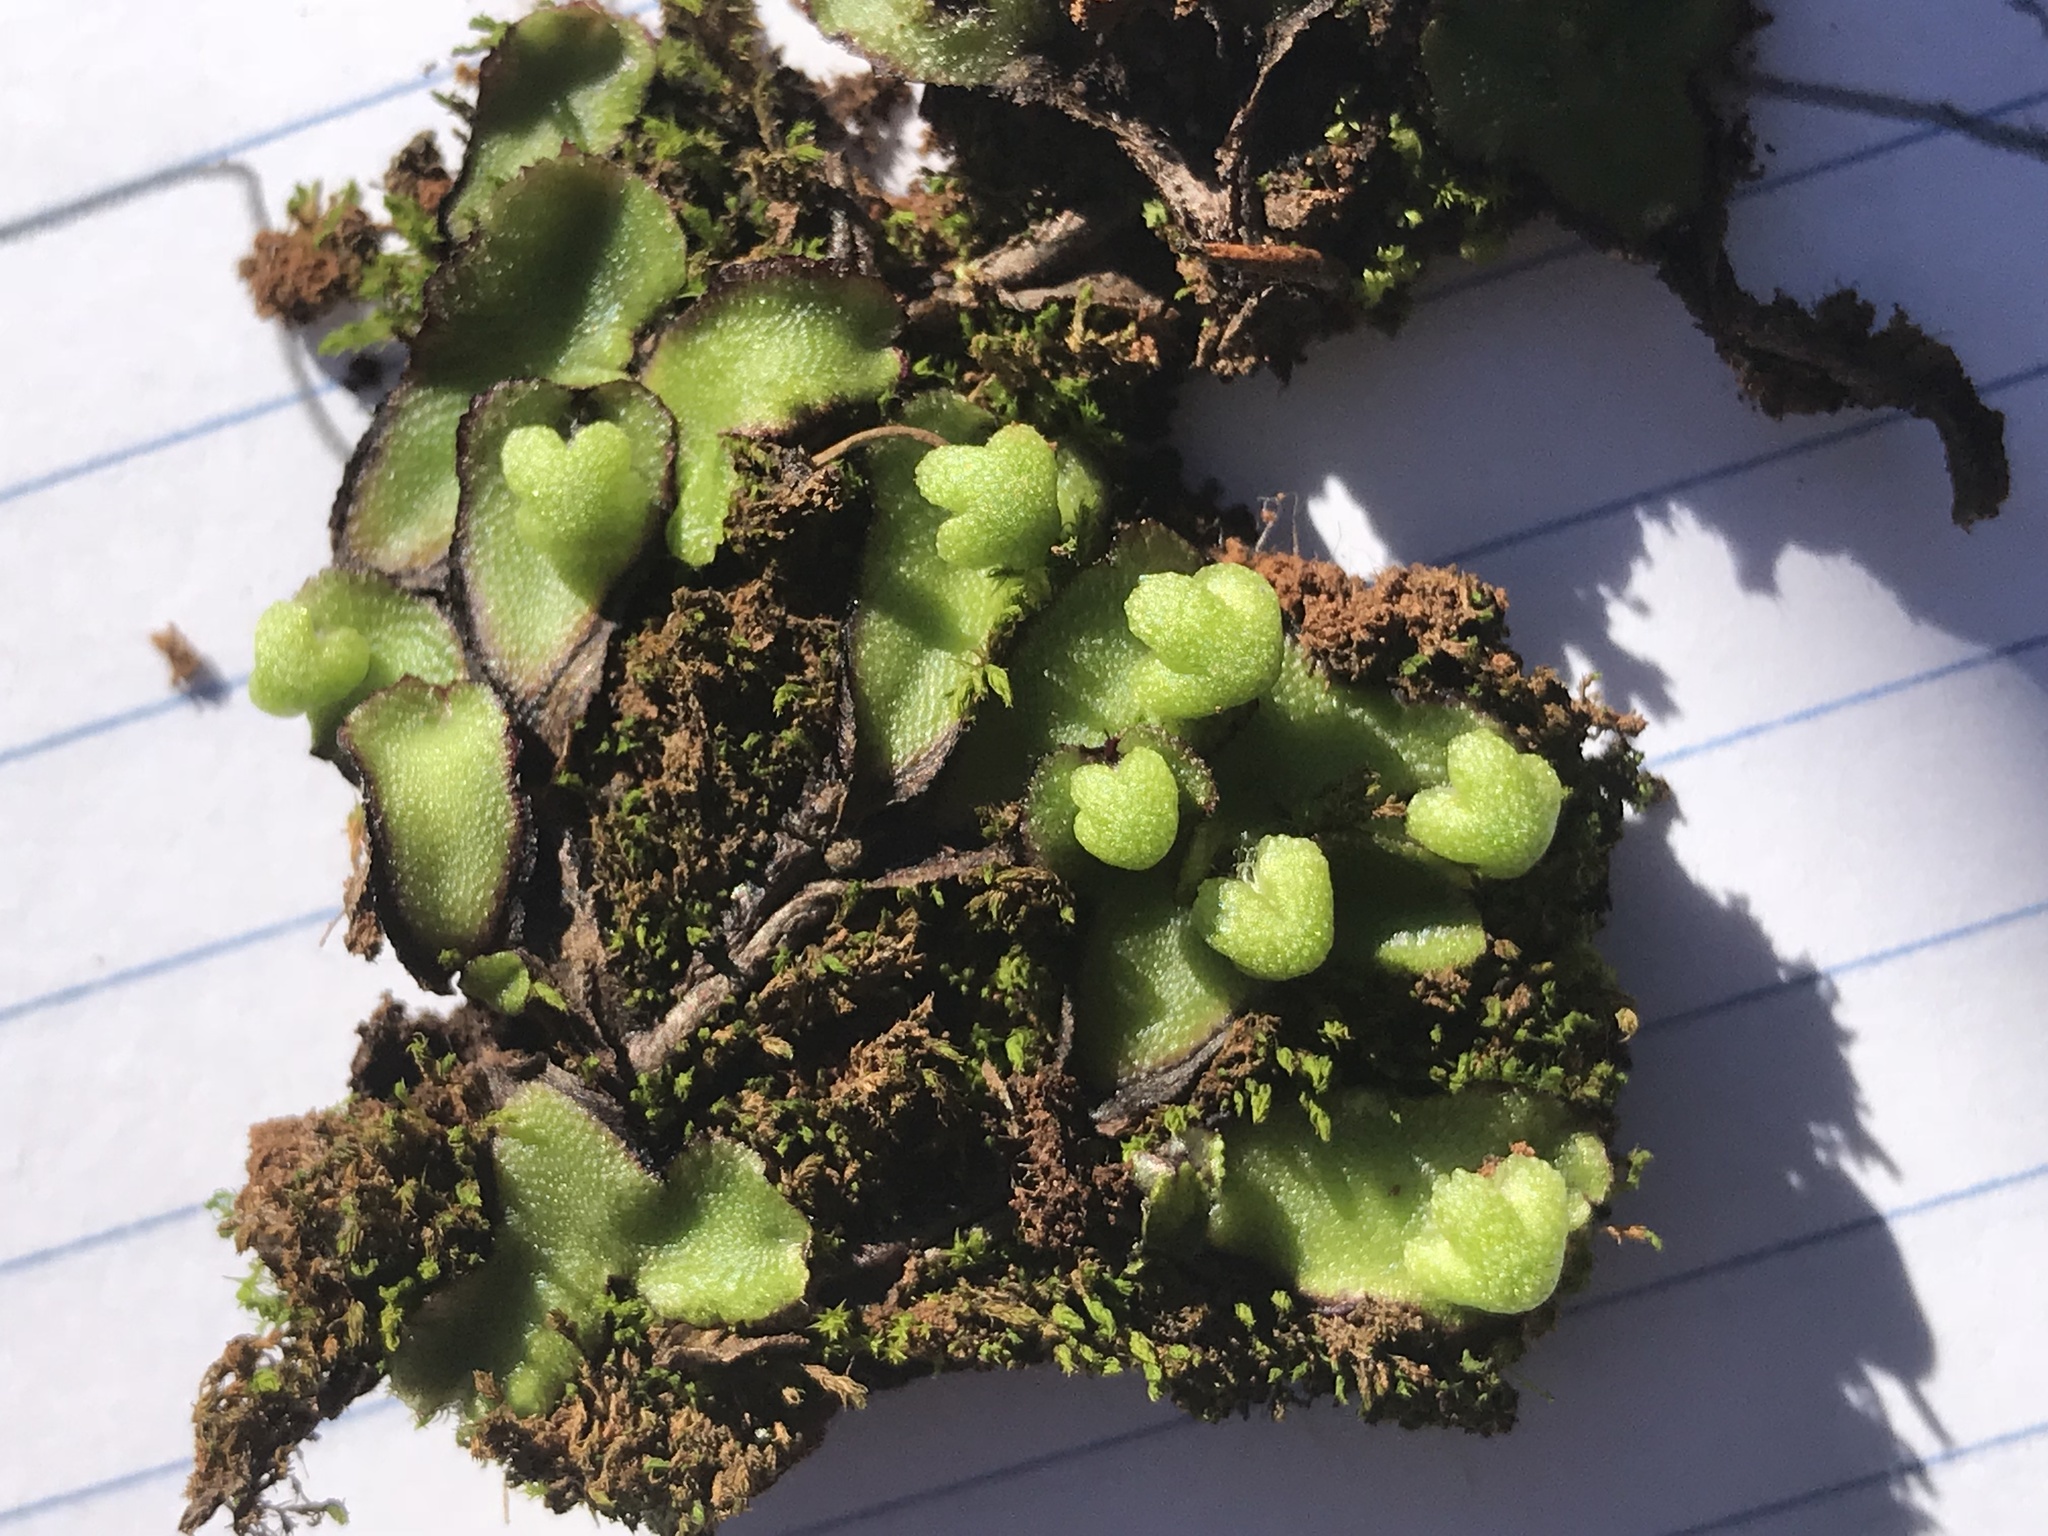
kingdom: Plantae
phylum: Marchantiophyta
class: Marchantiopsida
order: Marchantiales
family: Aytoniaceae
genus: Asterella
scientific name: Asterella californica
